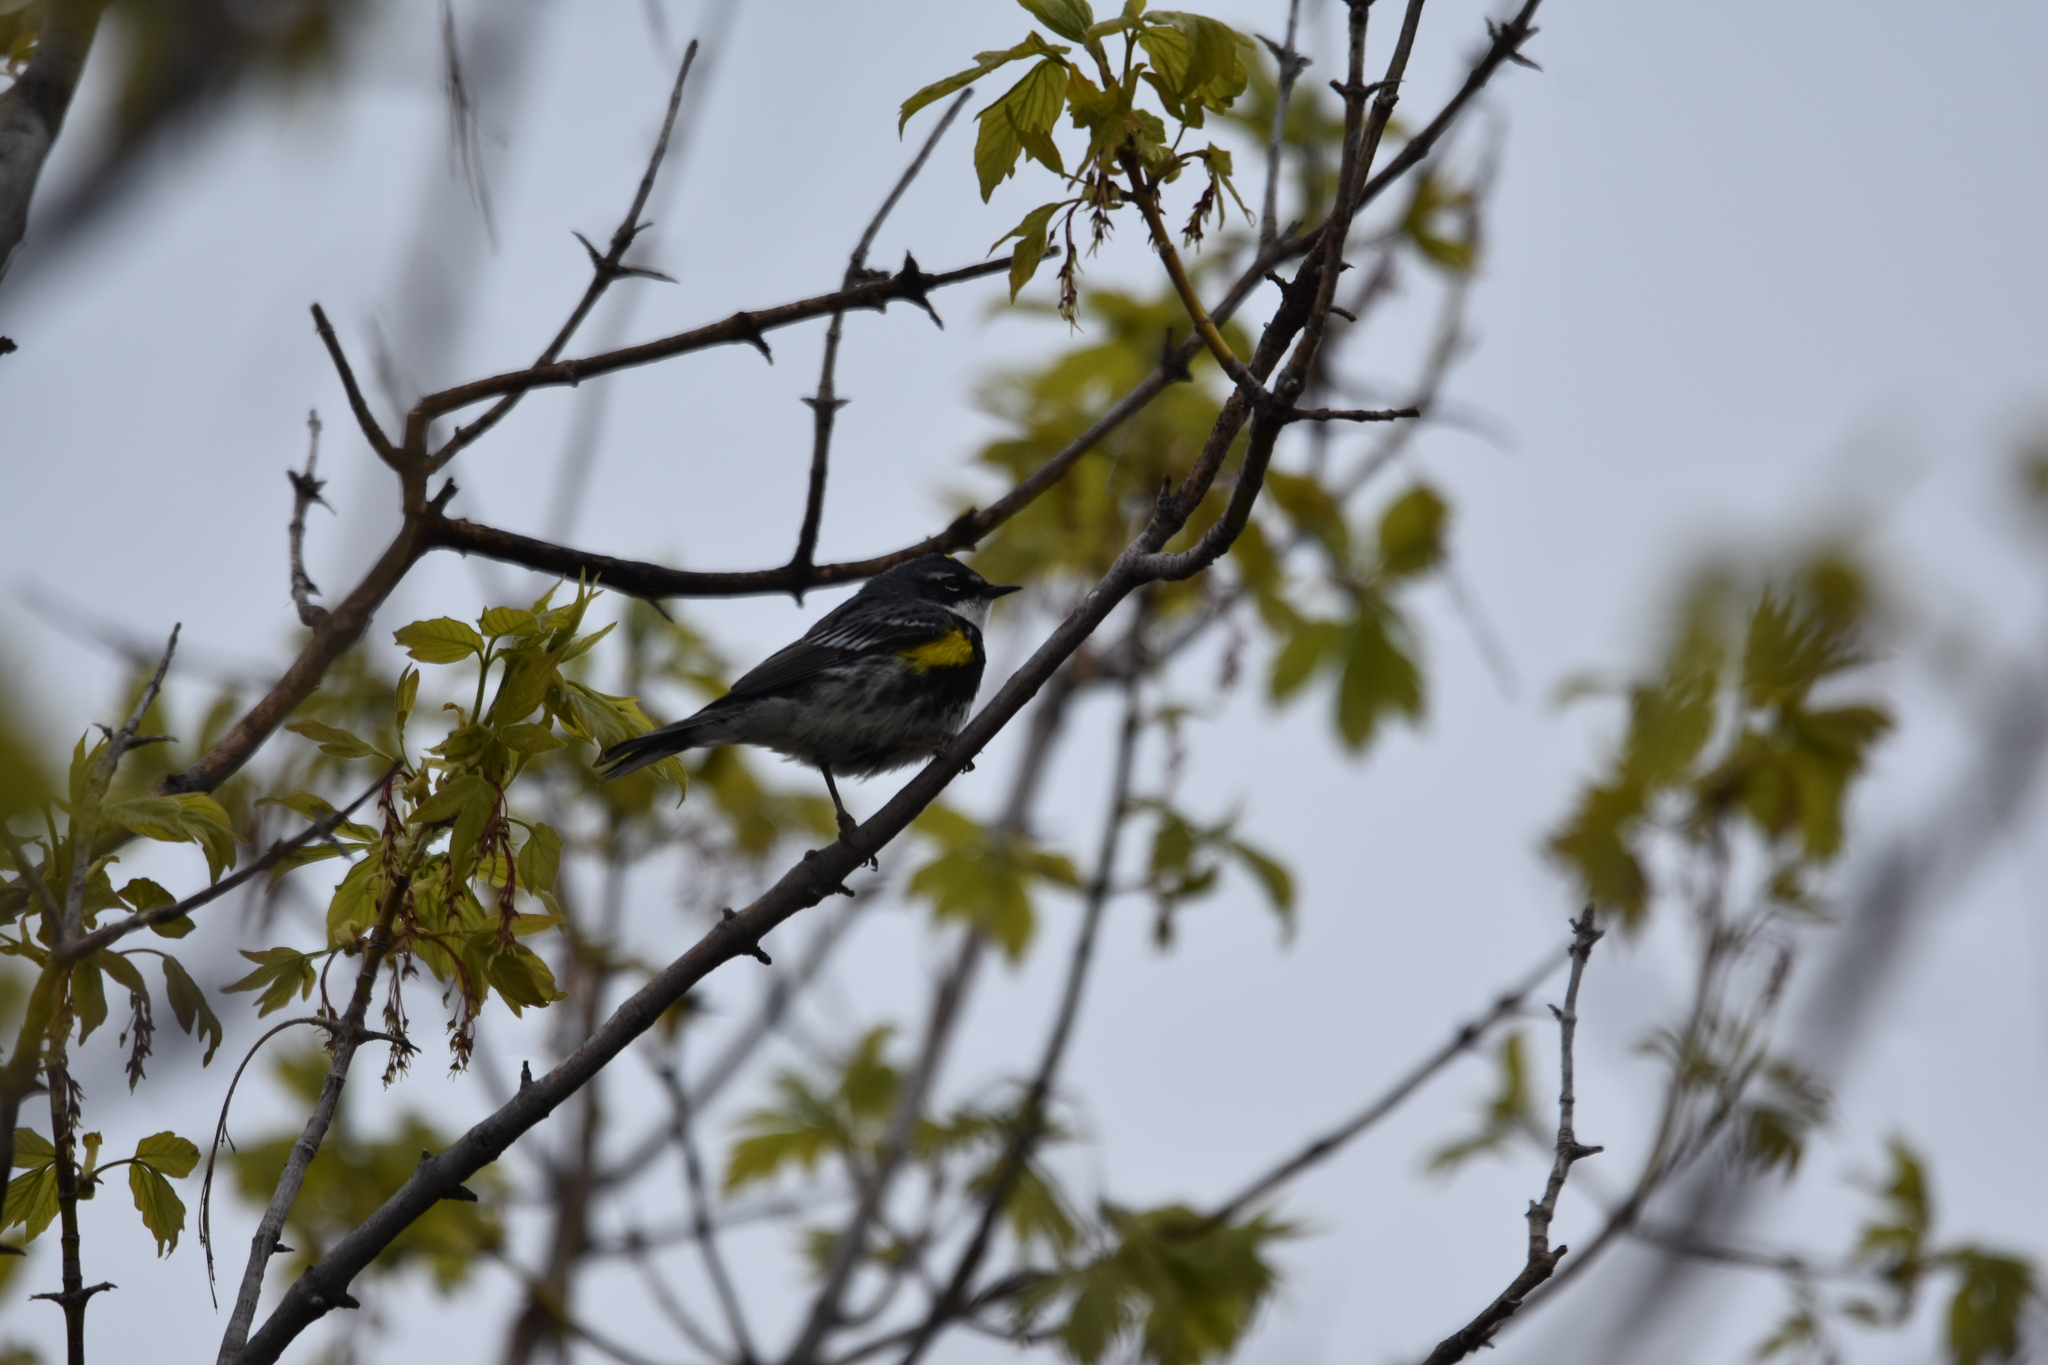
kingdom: Animalia
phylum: Chordata
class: Aves
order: Passeriformes
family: Parulidae
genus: Setophaga
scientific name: Setophaga coronata
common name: Myrtle warbler
